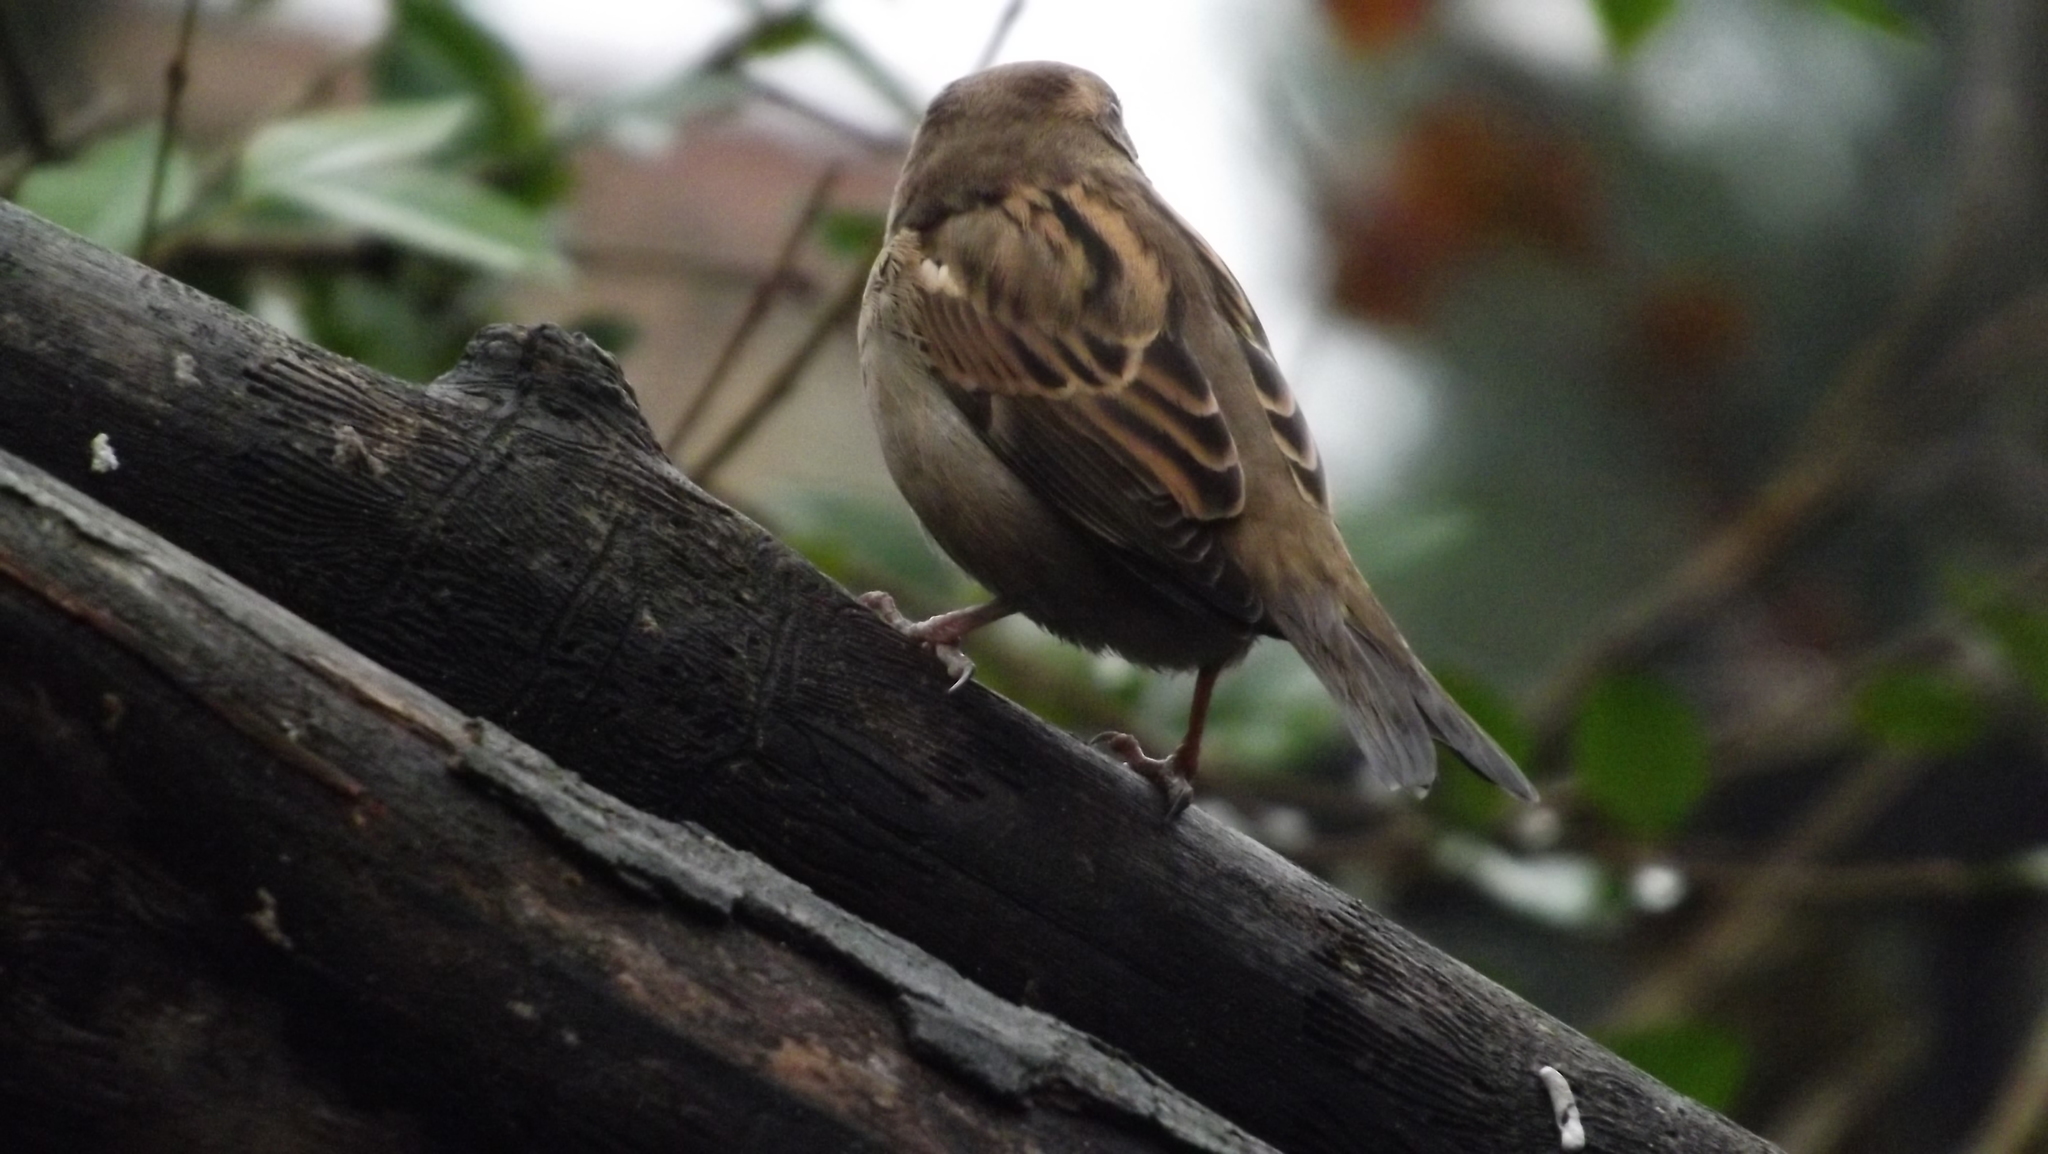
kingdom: Animalia
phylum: Chordata
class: Aves
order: Passeriformes
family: Passeridae
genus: Passer
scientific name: Passer domesticus
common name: House sparrow
